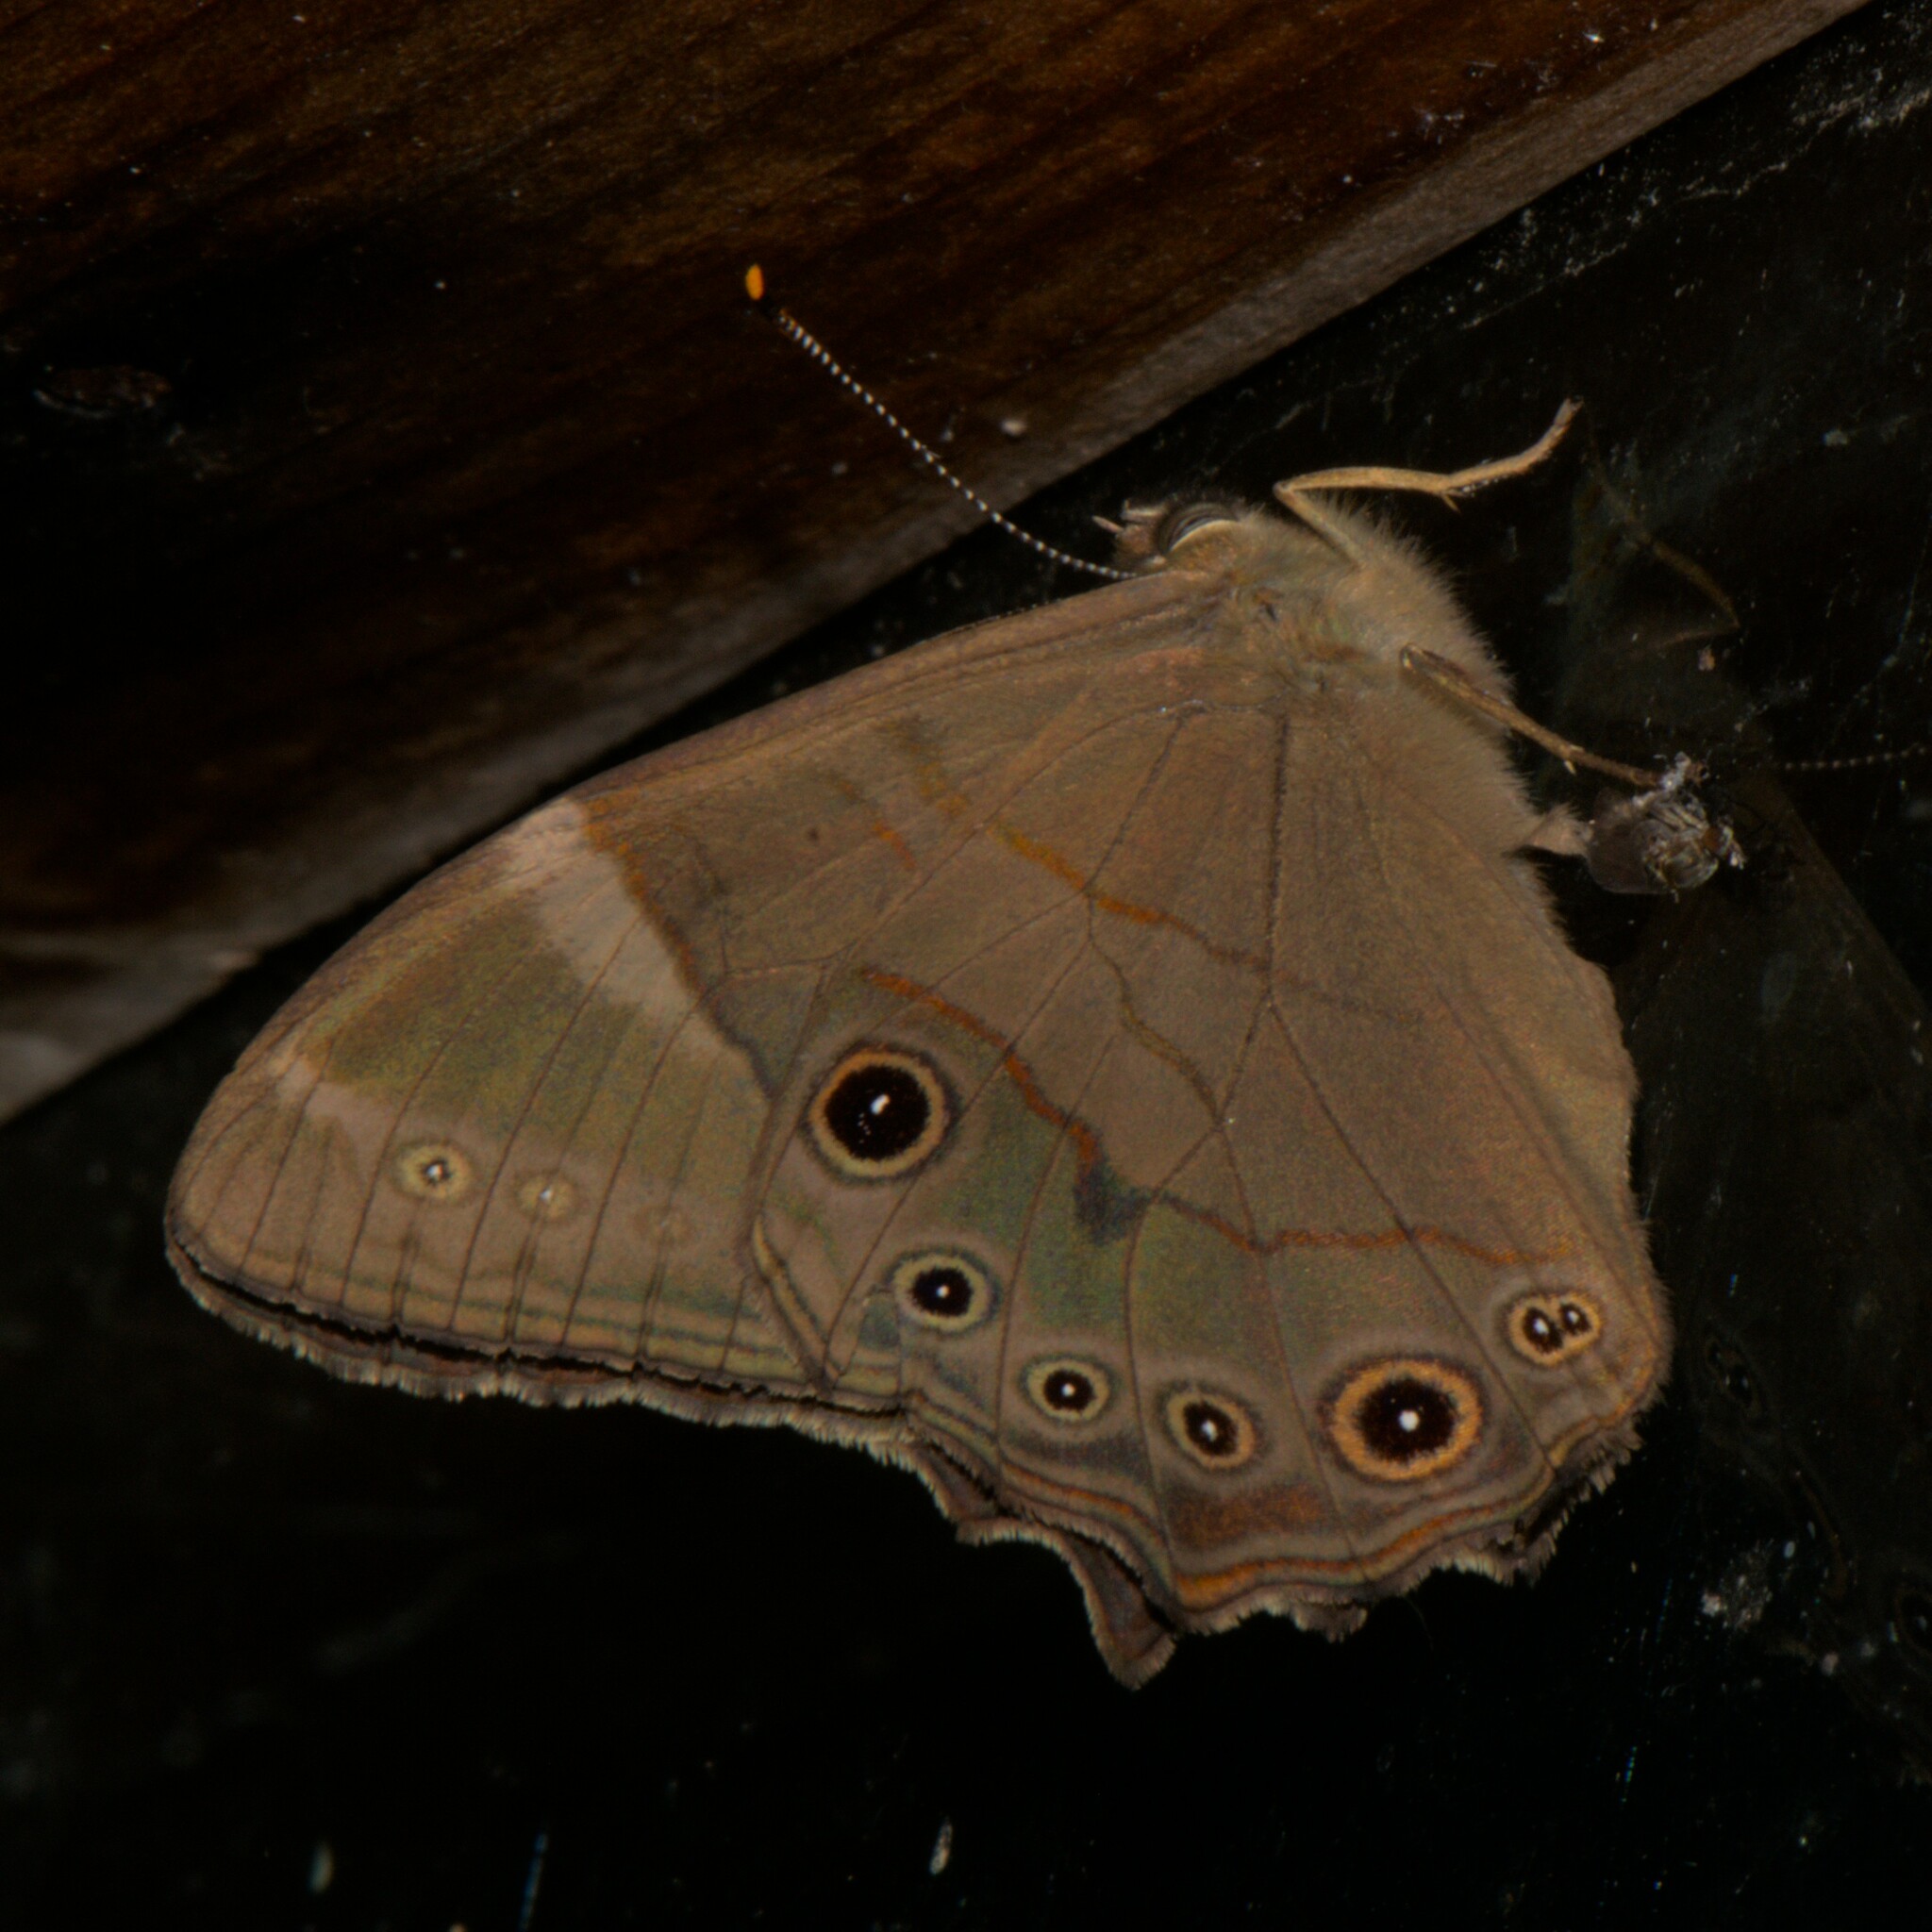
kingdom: Animalia
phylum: Arthropoda
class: Insecta
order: Lepidoptera
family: Nymphalidae
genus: Lethe
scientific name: Lethe
